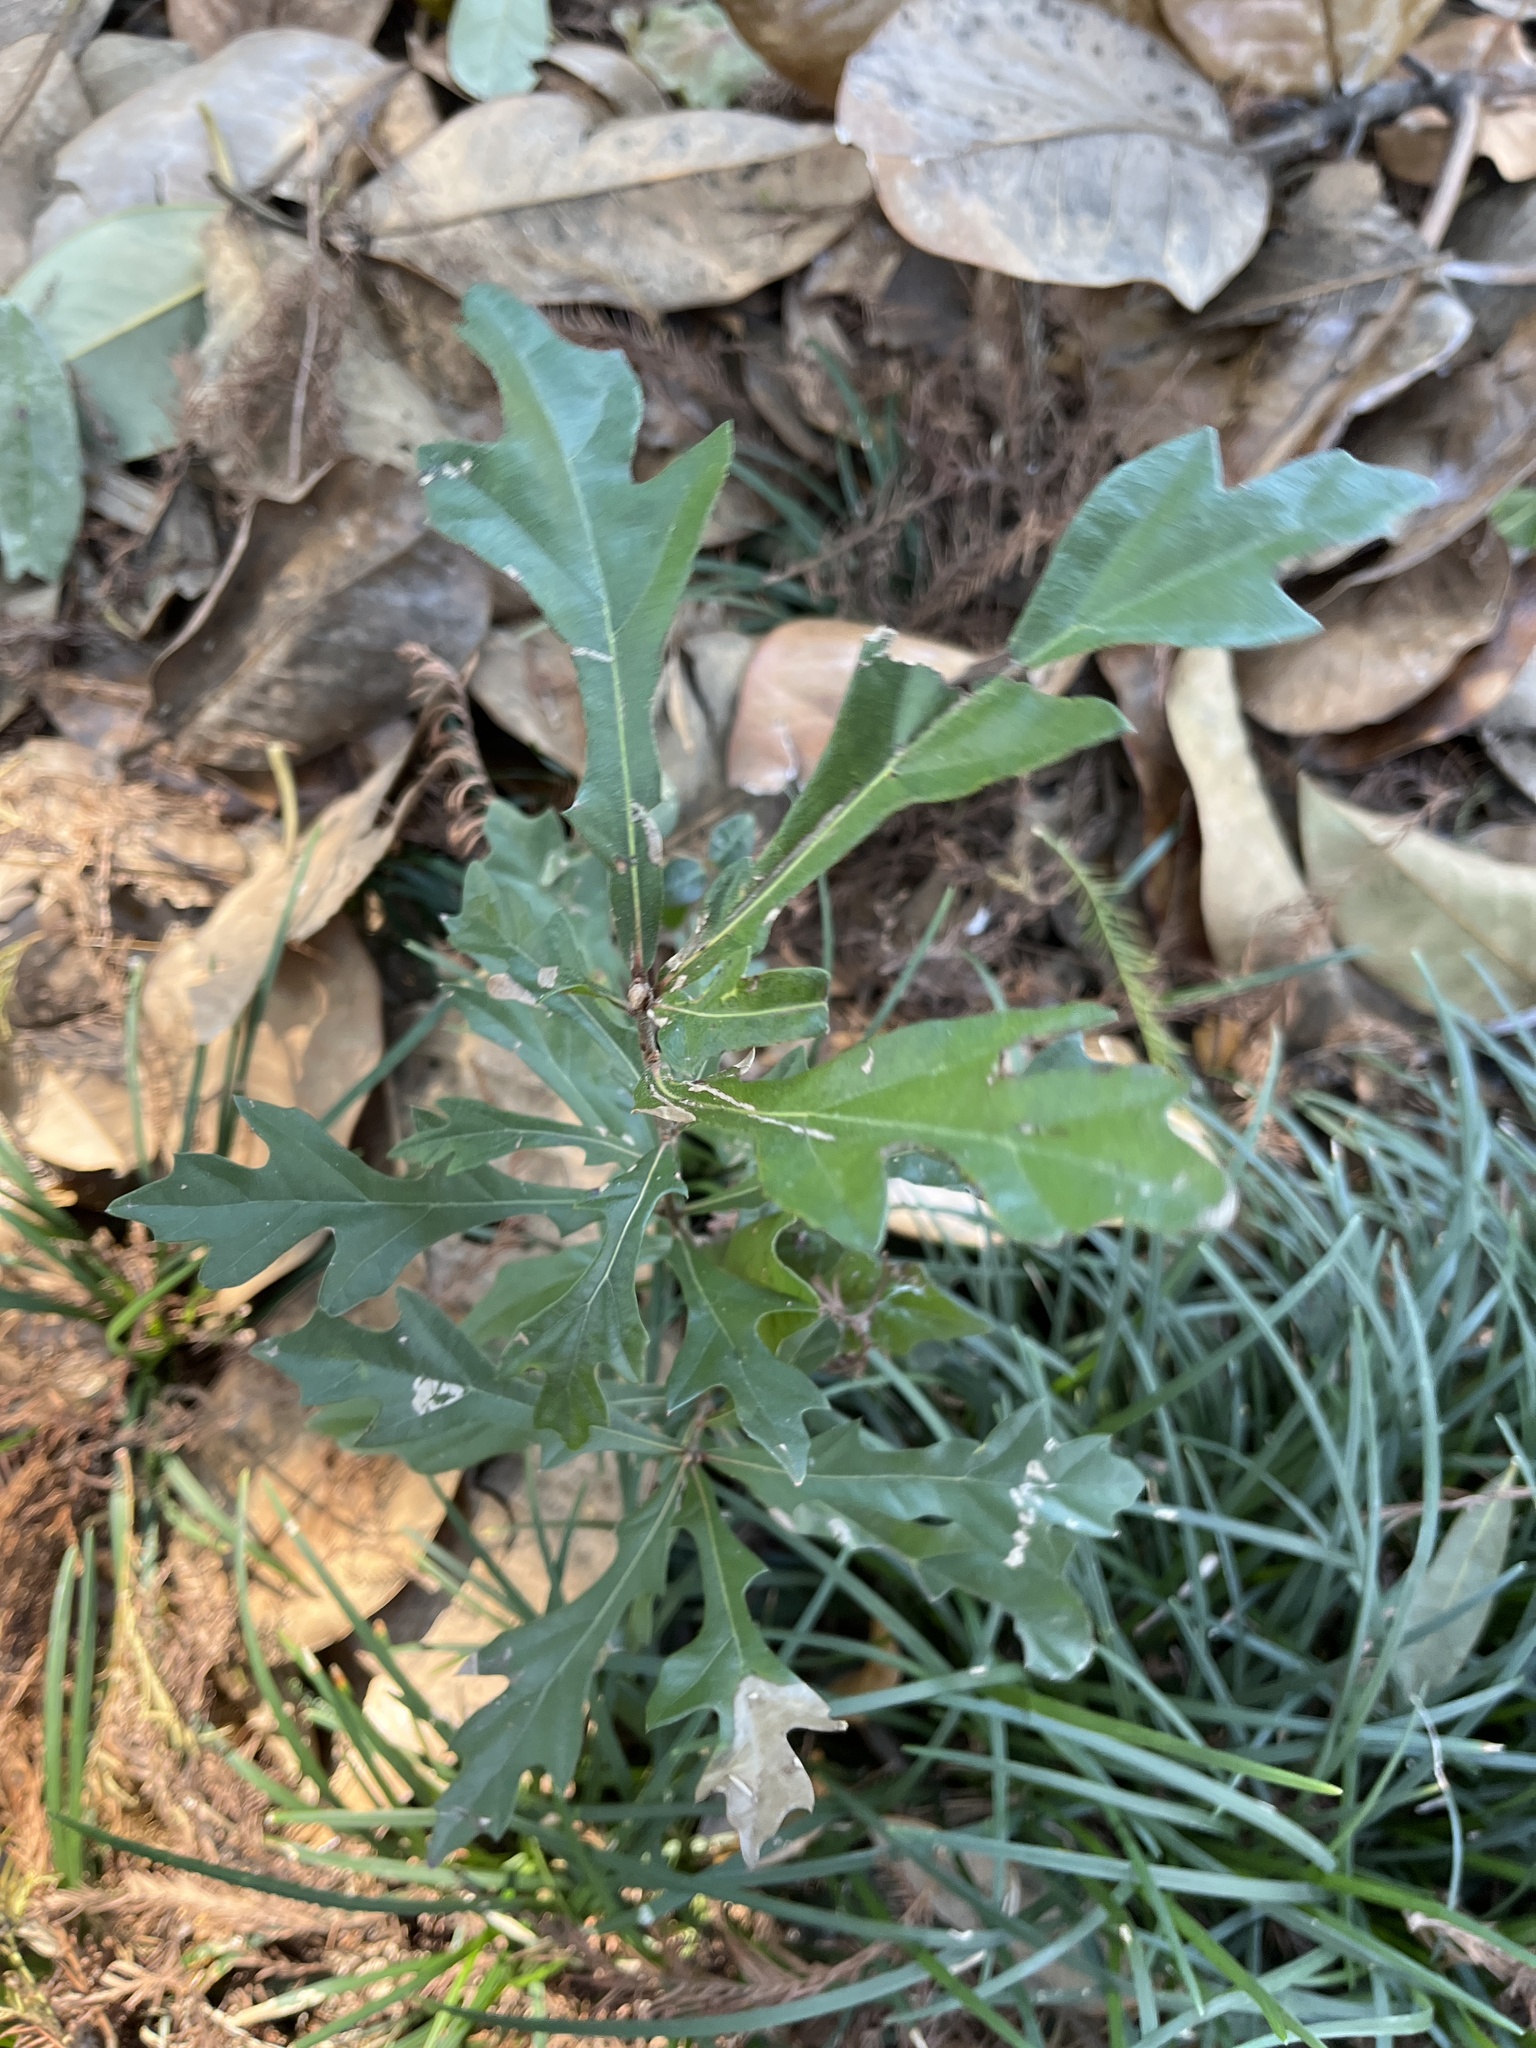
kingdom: Plantae
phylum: Tracheophyta
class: Magnoliopsida
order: Fagales
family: Fagaceae
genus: Quercus
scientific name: Quercus
